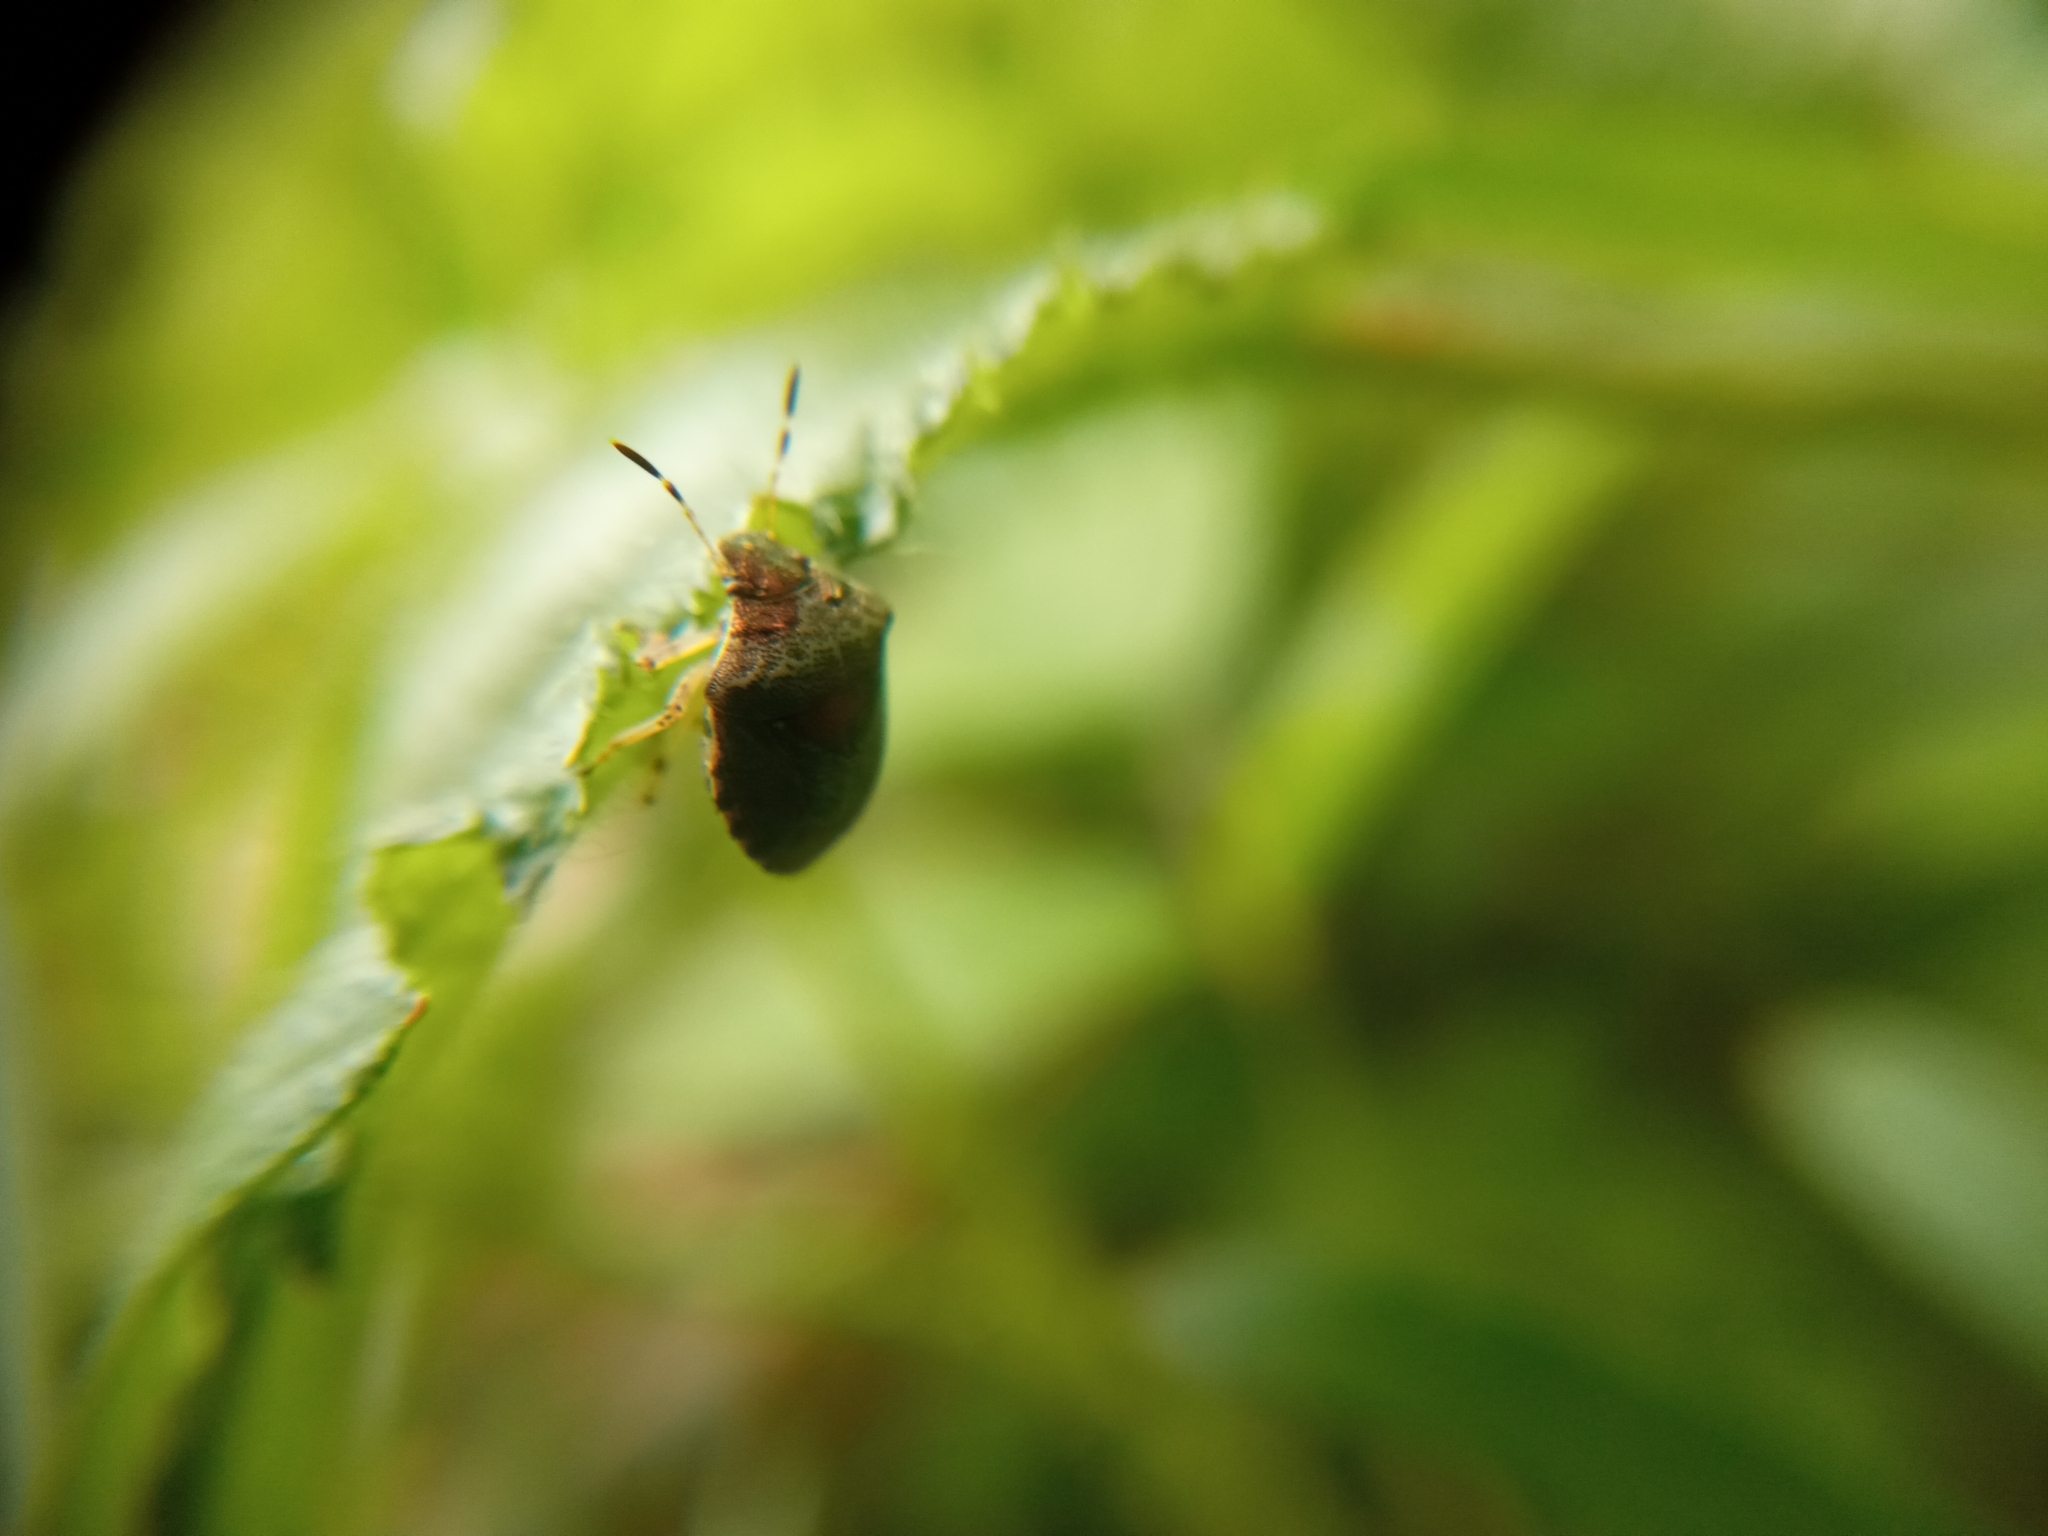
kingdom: Animalia
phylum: Arthropoda
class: Insecta
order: Hemiptera
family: Pentatomidae
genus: Eysarcoris
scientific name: Eysarcoris venustissimus
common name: Woundwort shieldbug
